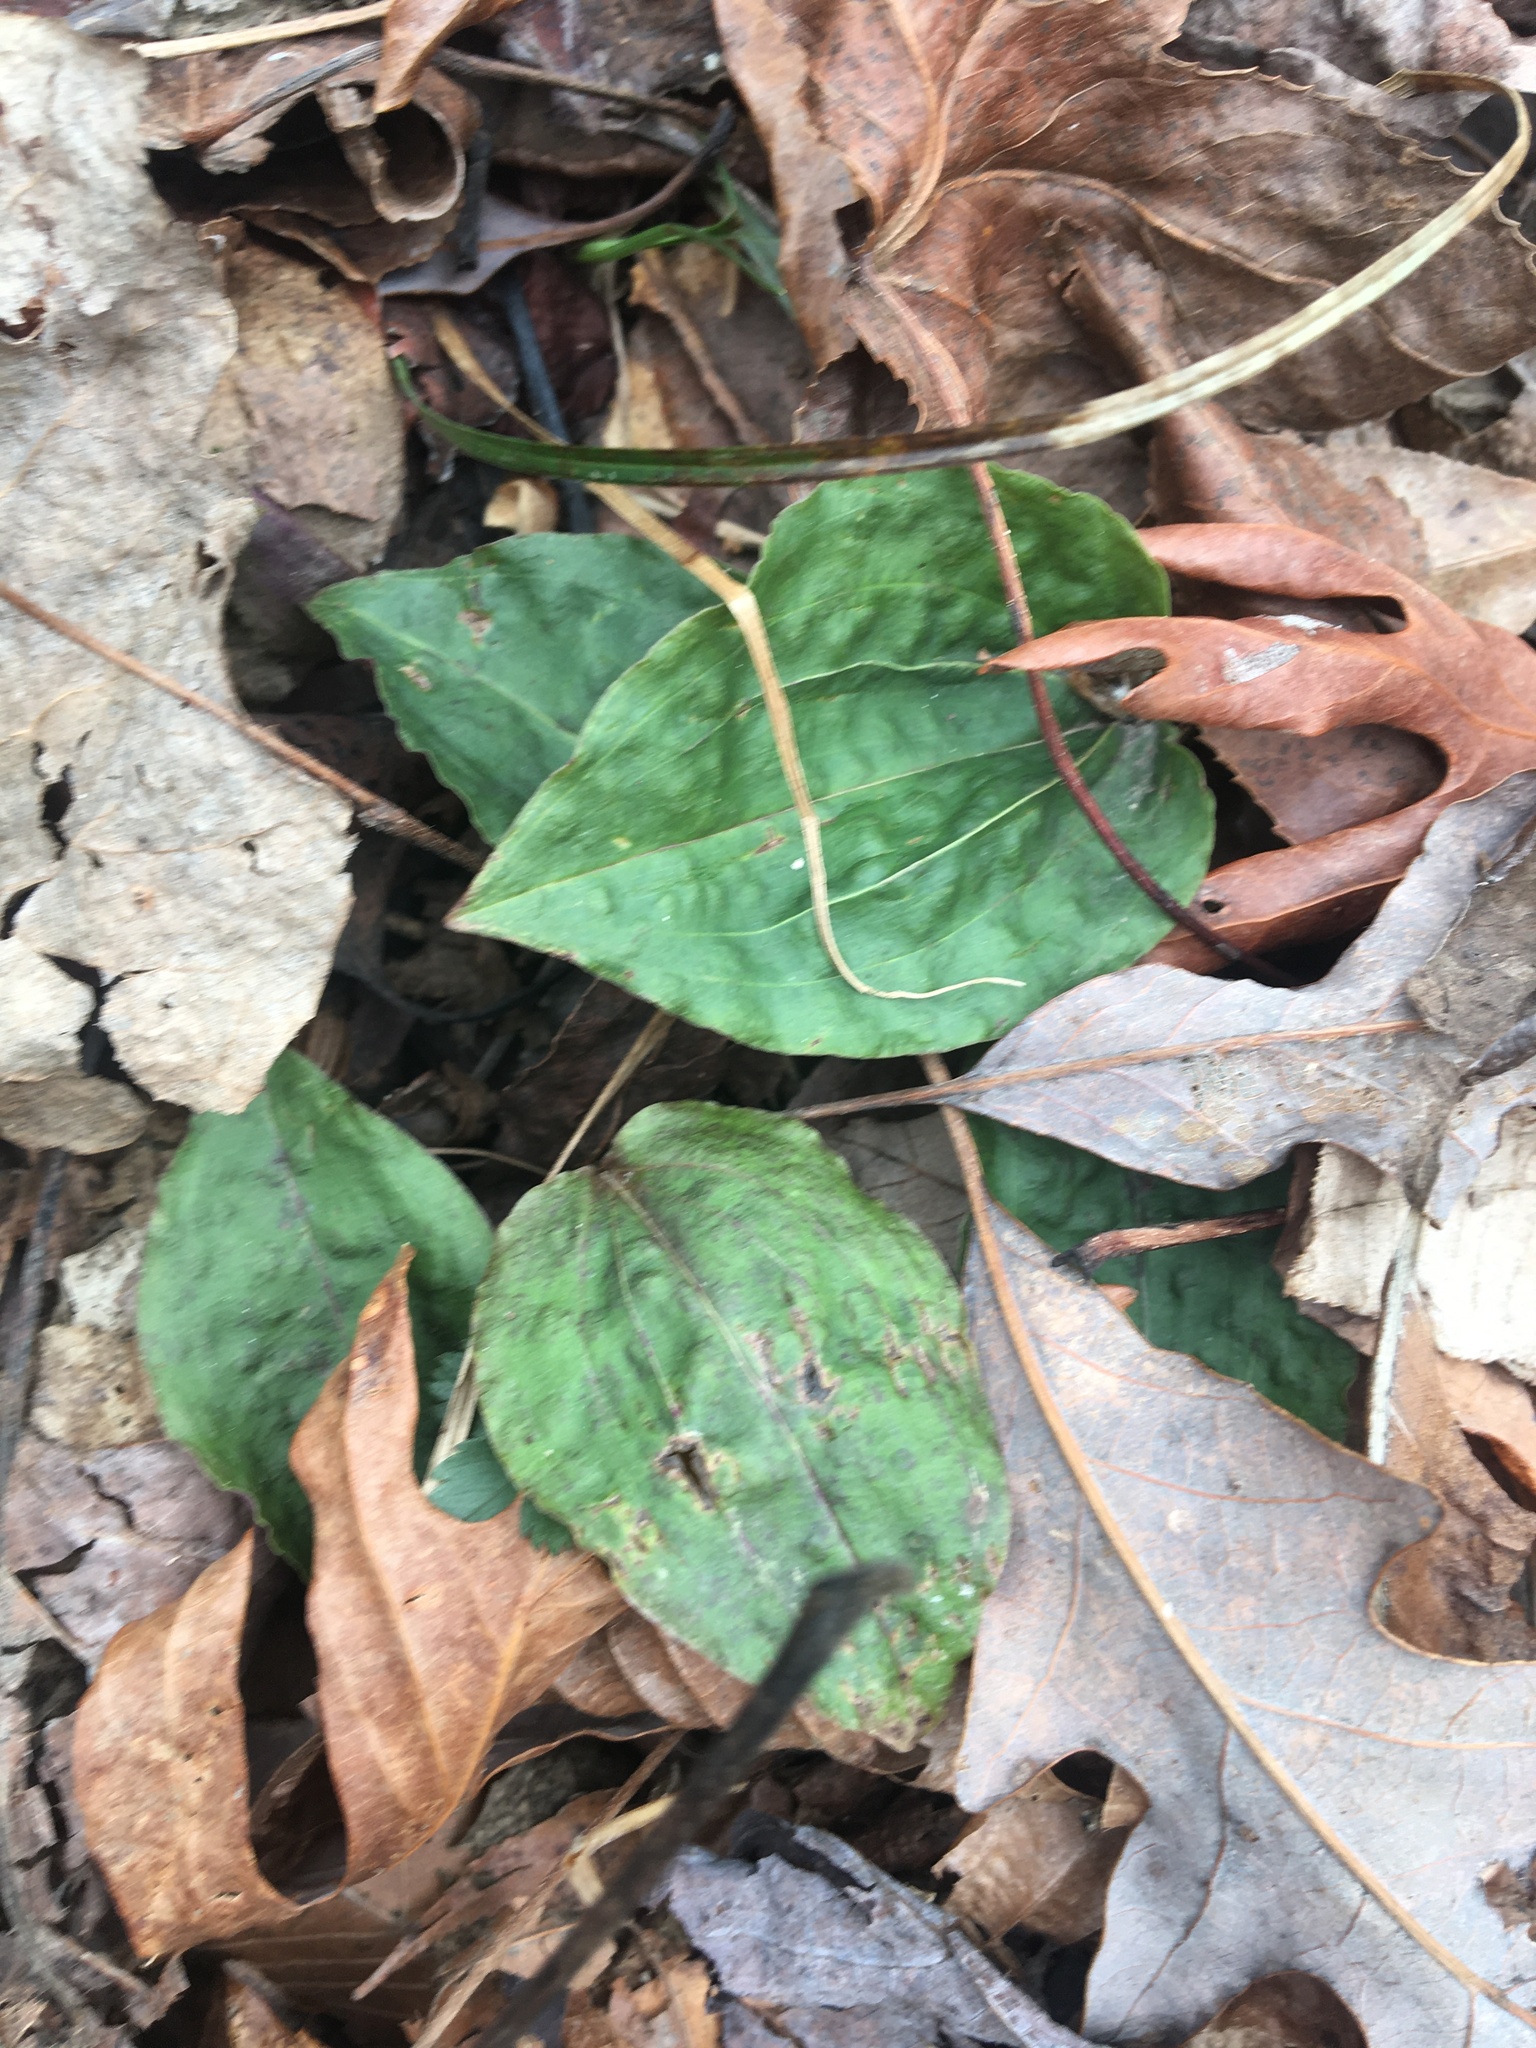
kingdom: Plantae
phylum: Tracheophyta
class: Liliopsida
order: Asparagales
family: Orchidaceae
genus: Tipularia
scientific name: Tipularia discolor
